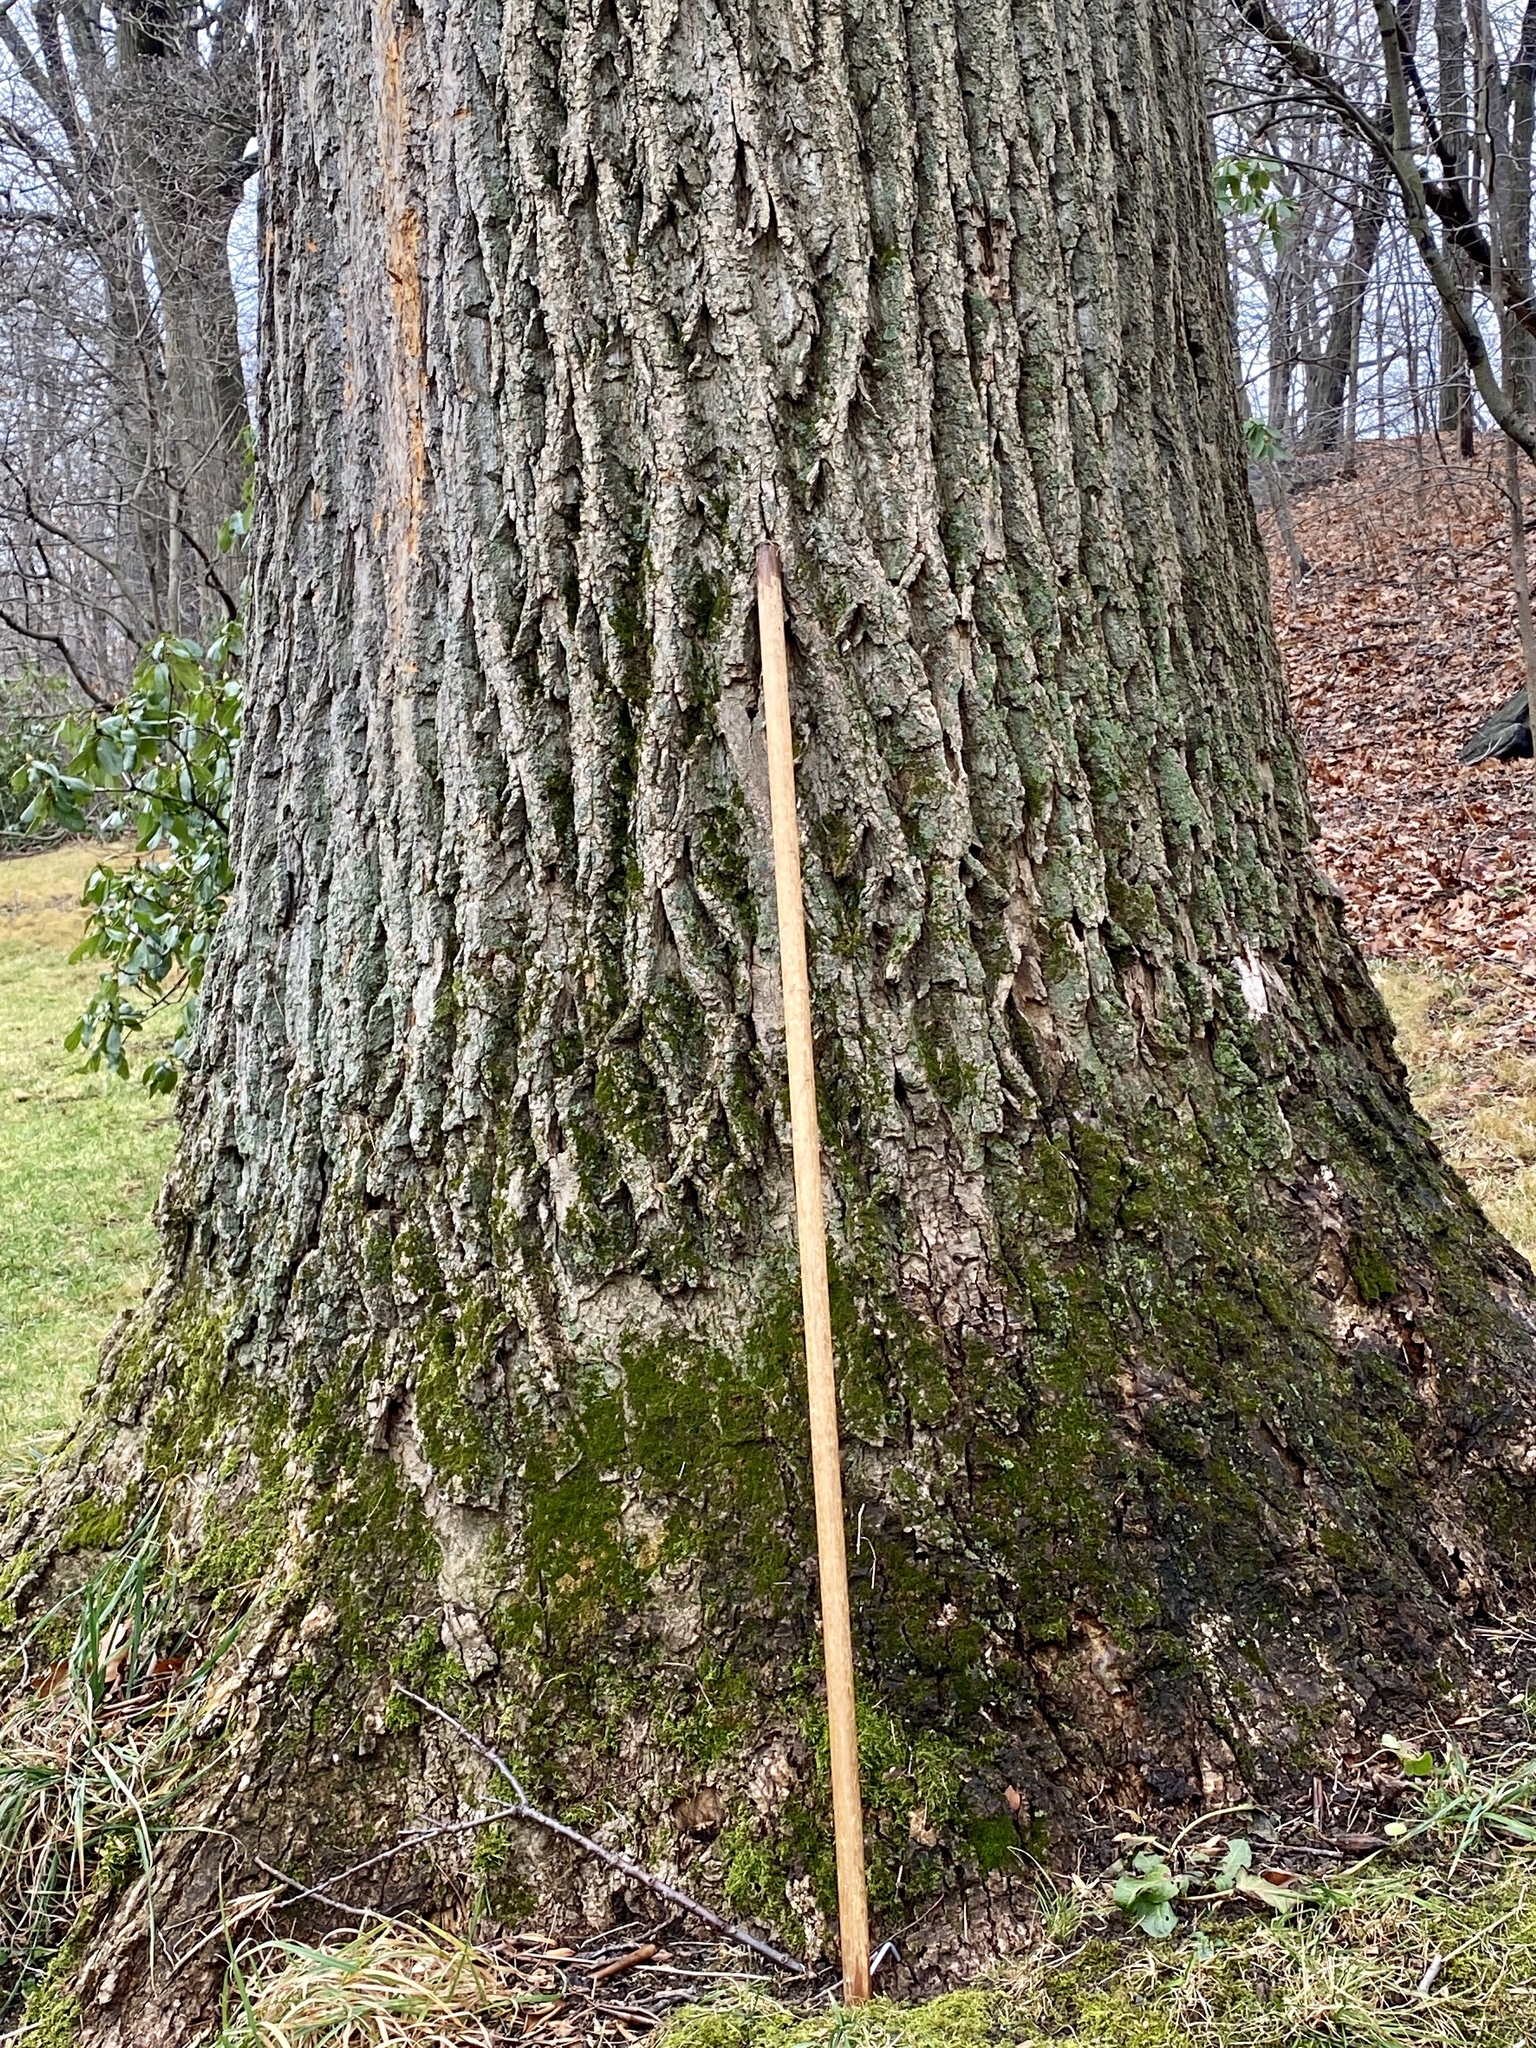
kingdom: Plantae
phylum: Tracheophyta
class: Magnoliopsida
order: Magnoliales
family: Magnoliaceae
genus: Liriodendron
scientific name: Liriodendron tulipifera
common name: Tulip tree
